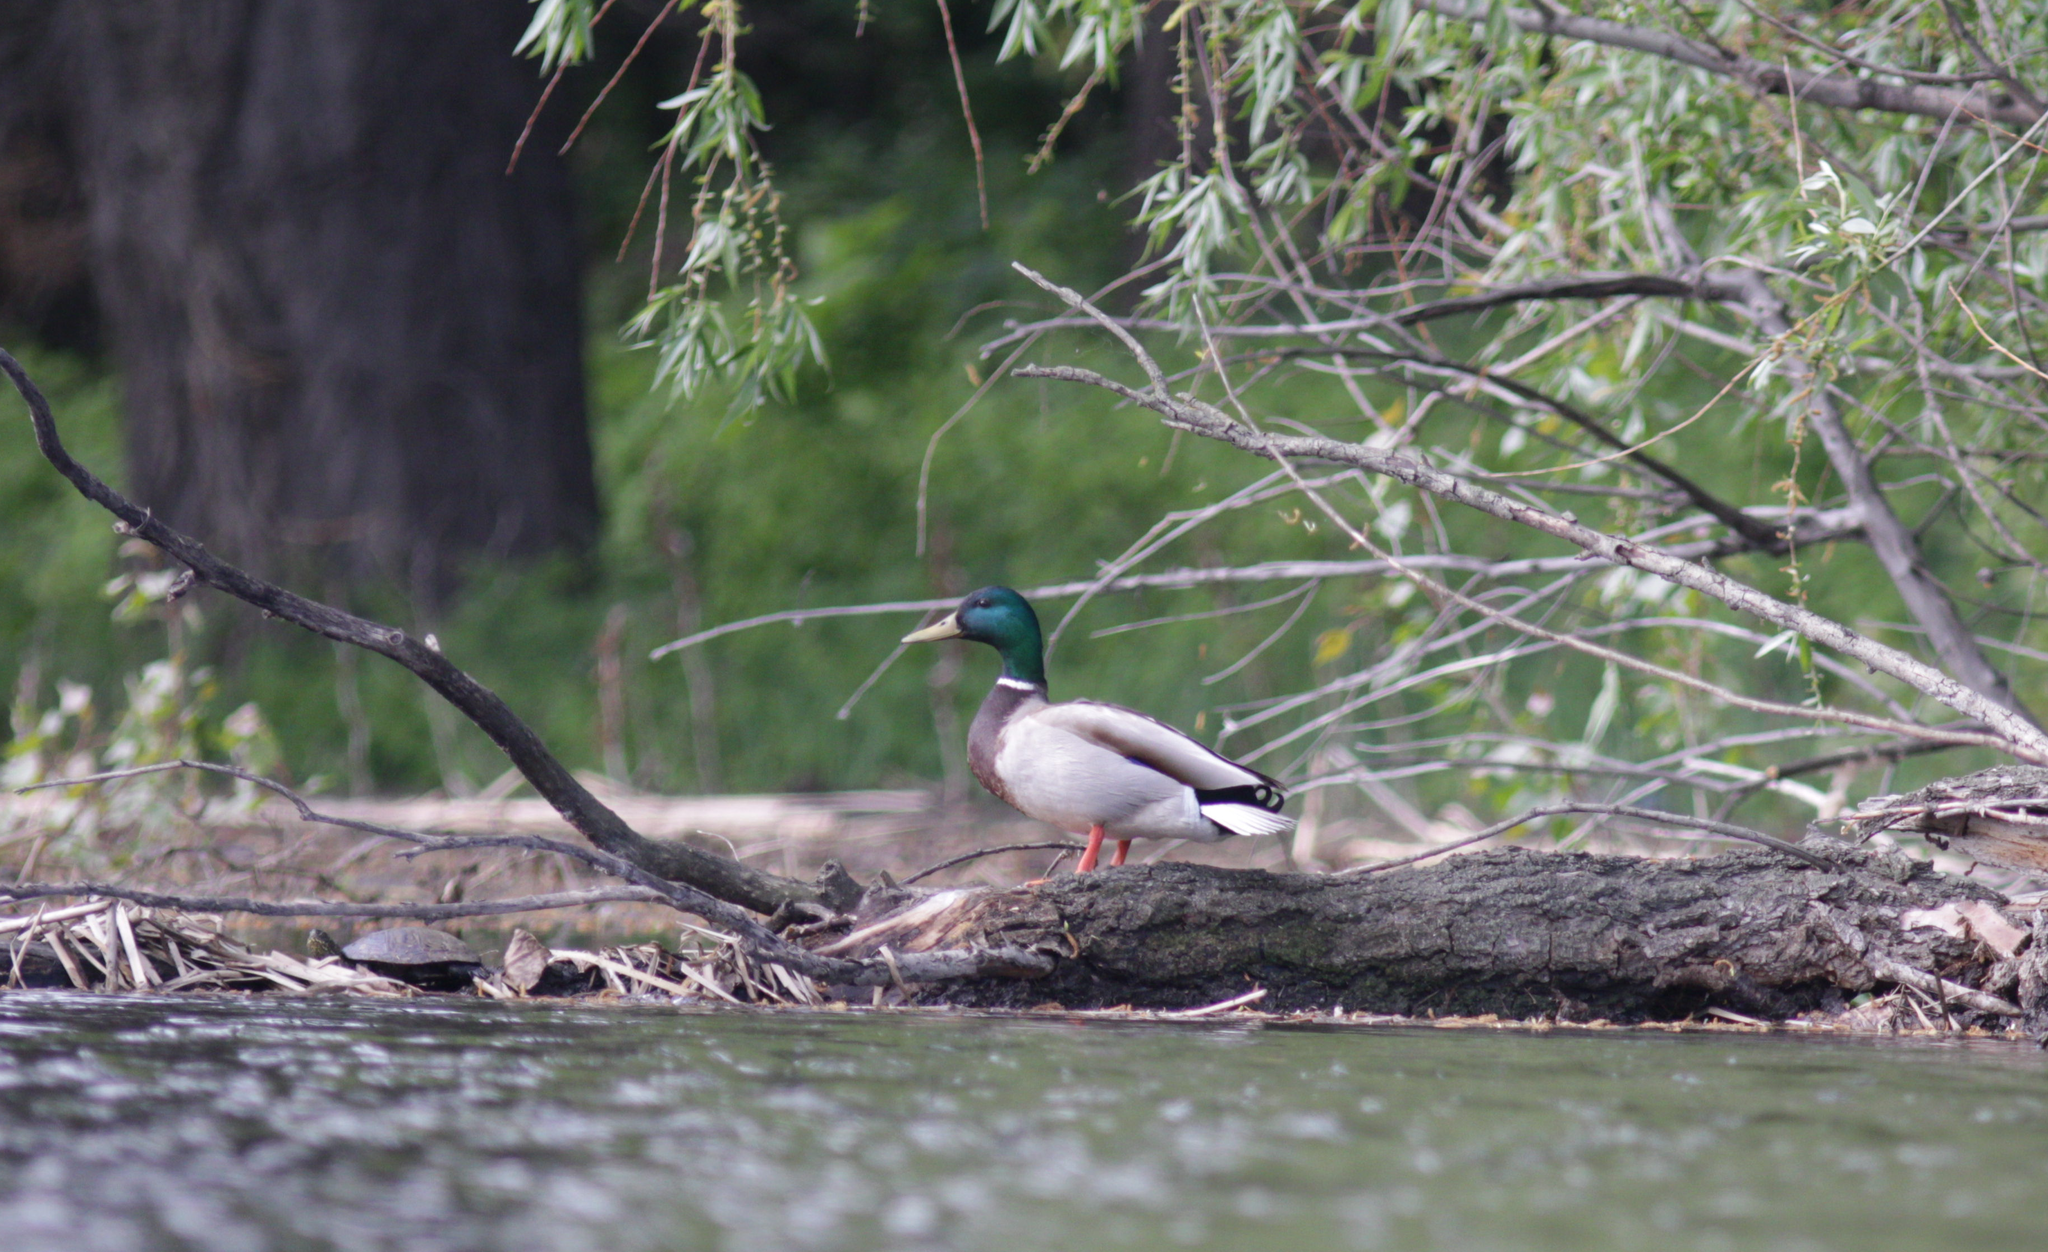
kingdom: Animalia
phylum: Chordata
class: Aves
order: Anseriformes
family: Anatidae
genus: Anas
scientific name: Anas platyrhynchos
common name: Mallard
